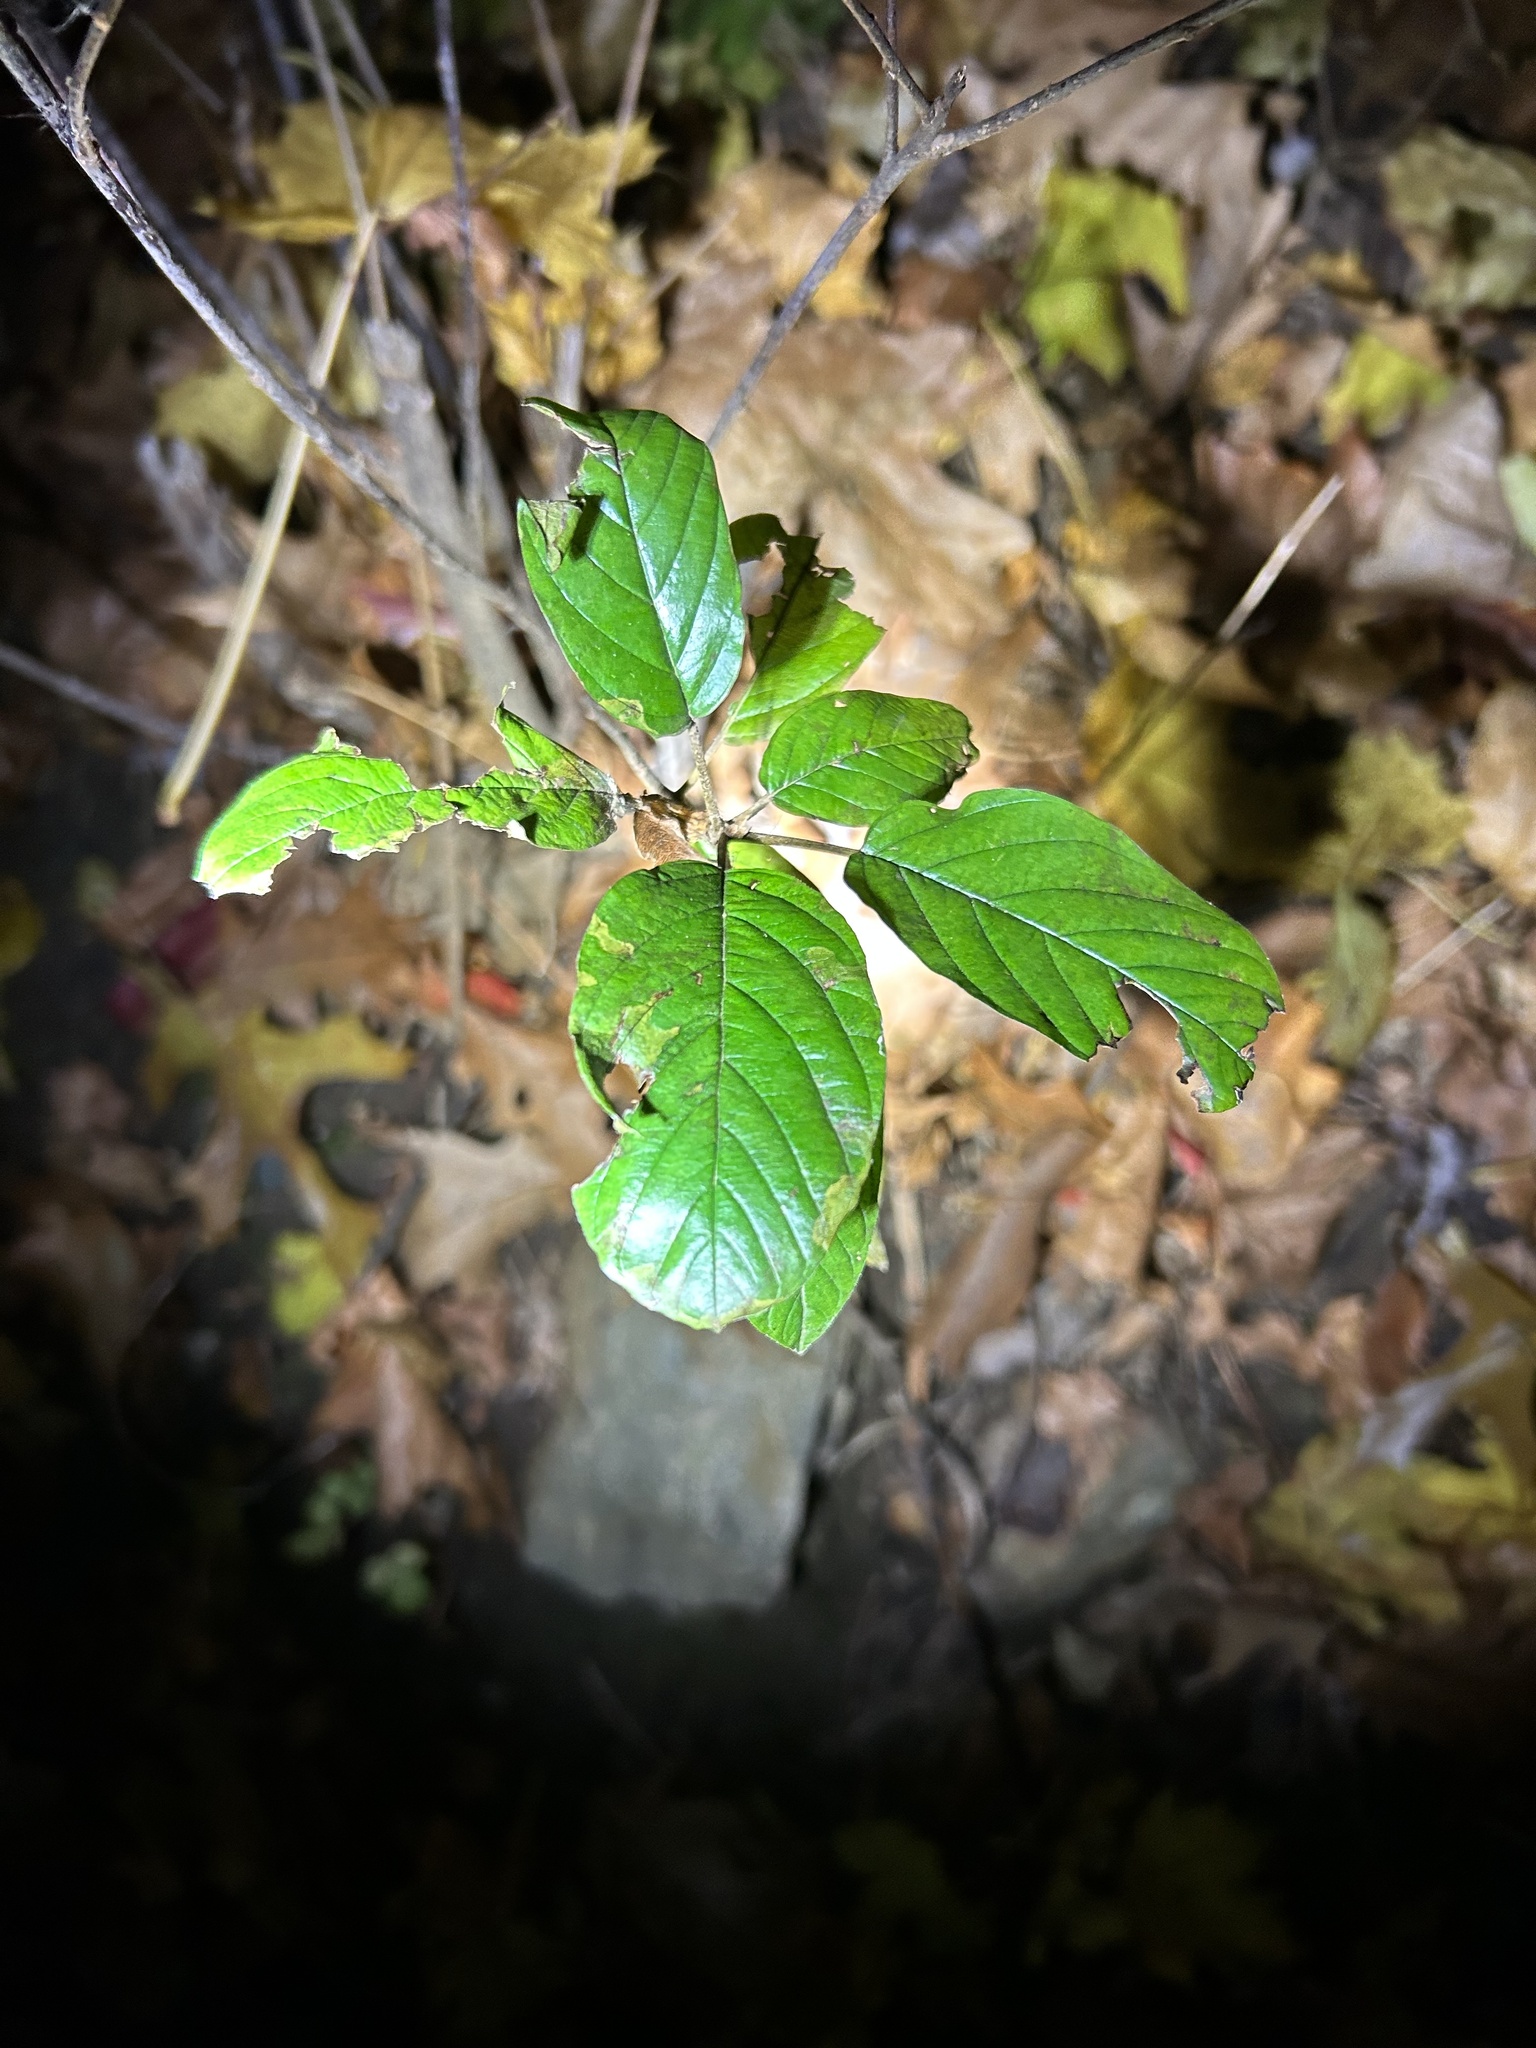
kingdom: Plantae
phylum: Tracheophyta
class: Magnoliopsida
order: Rosales
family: Rhamnaceae
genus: Frangula
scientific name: Frangula alnus
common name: Alder buckthorn
